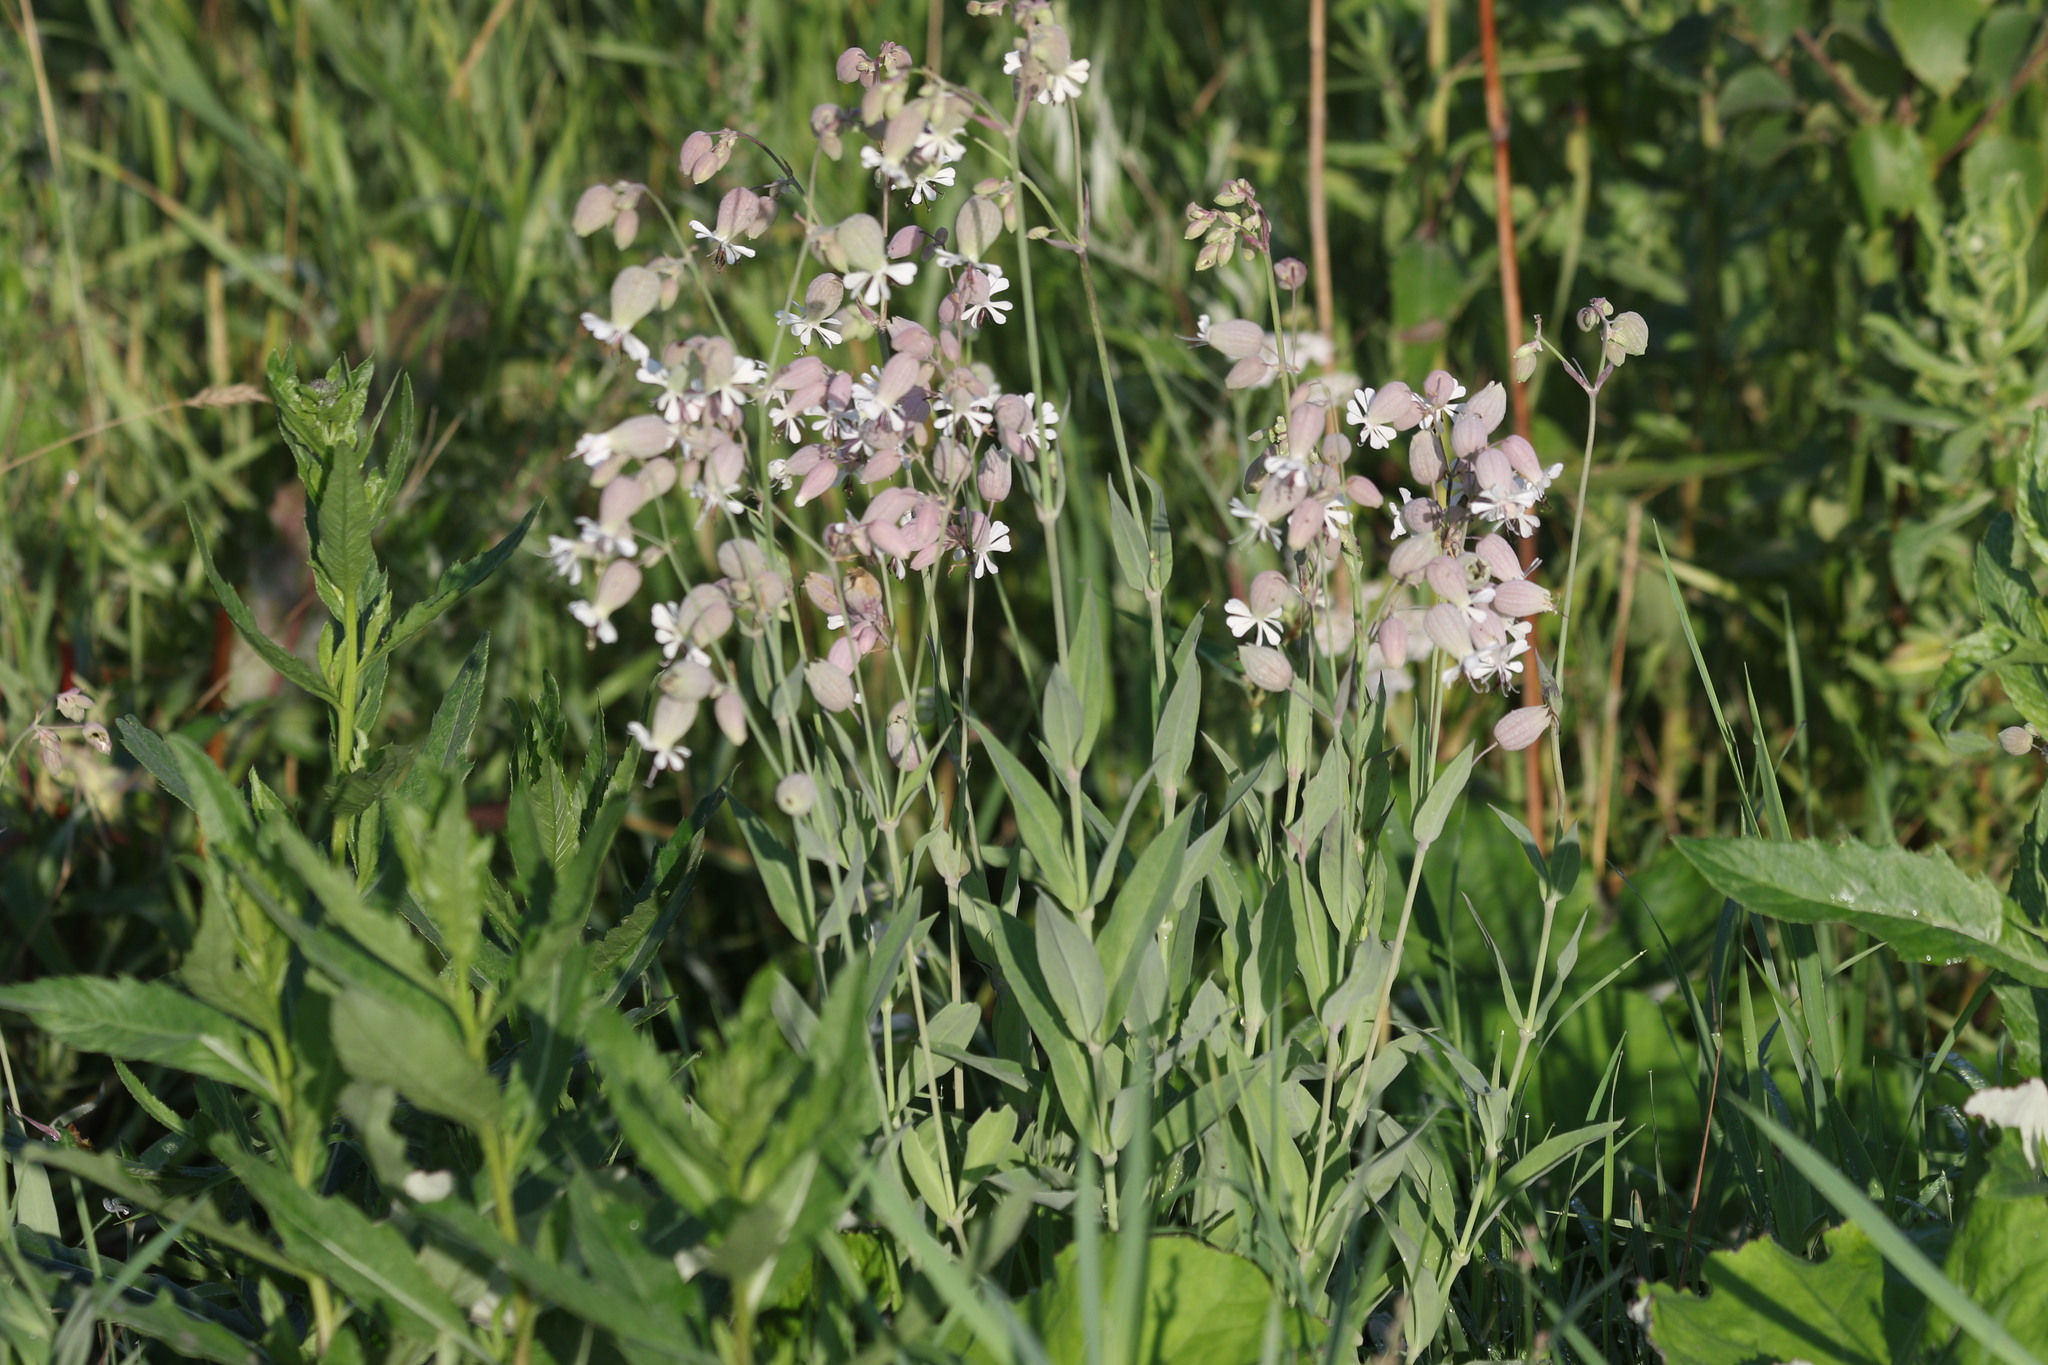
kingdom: Plantae
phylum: Tracheophyta
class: Magnoliopsida
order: Caryophyllales
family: Caryophyllaceae
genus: Silene
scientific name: Silene vulgaris
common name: Bladder campion
